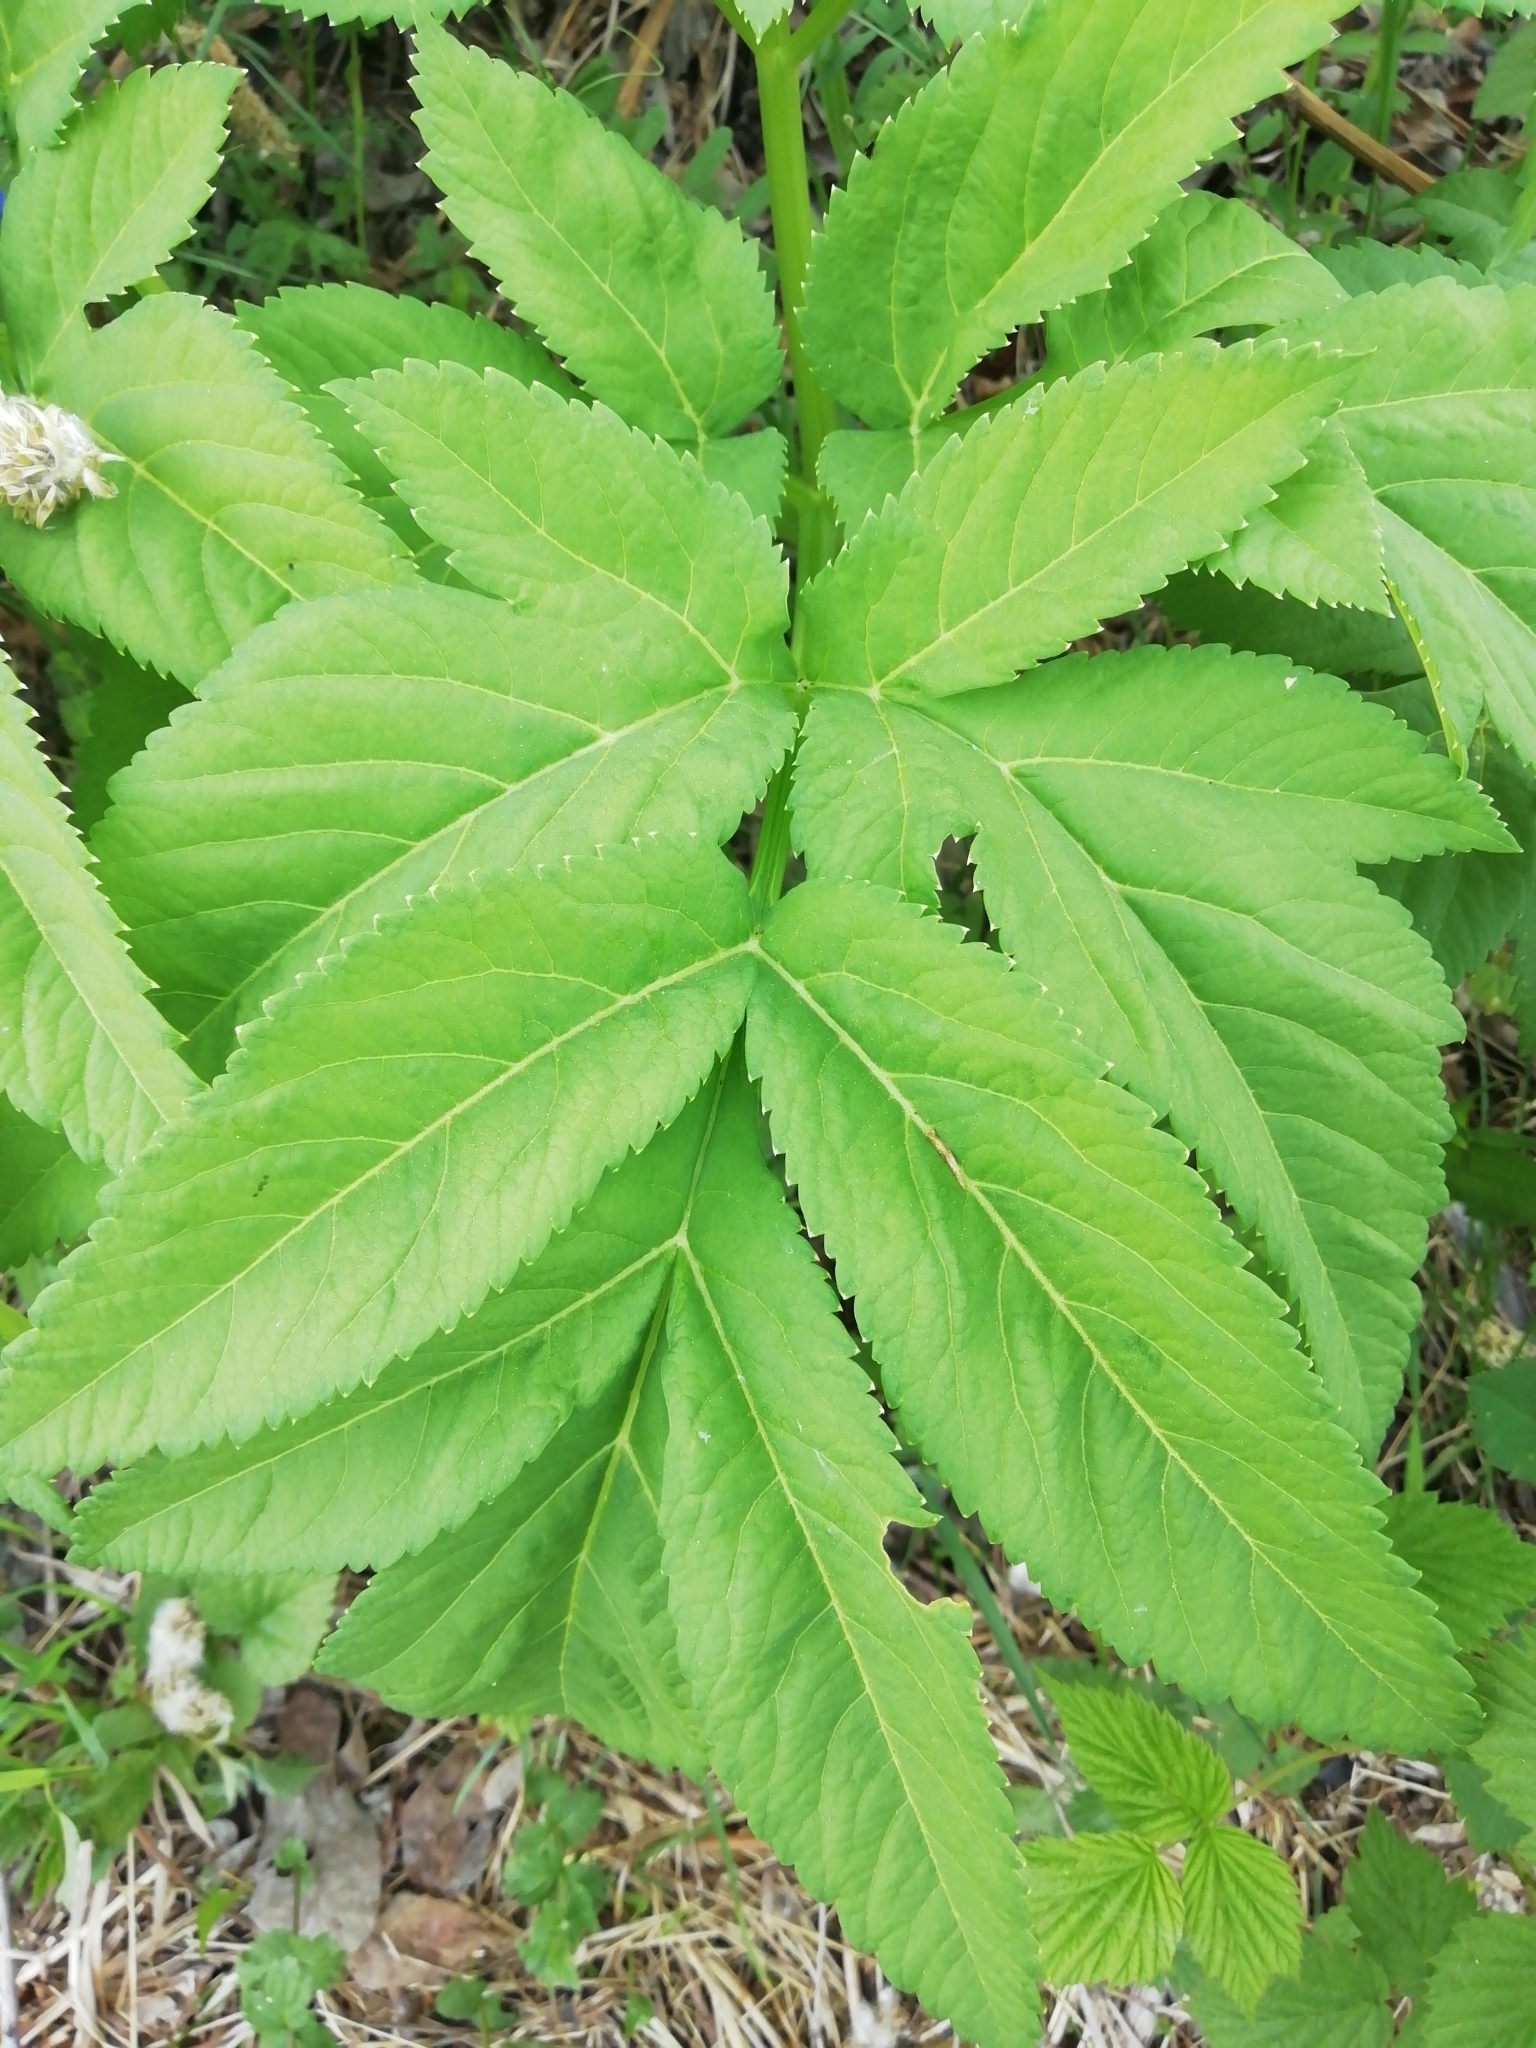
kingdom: Plantae
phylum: Tracheophyta
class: Magnoliopsida
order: Apiales
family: Apiaceae
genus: Angelica
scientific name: Angelica decurrens
